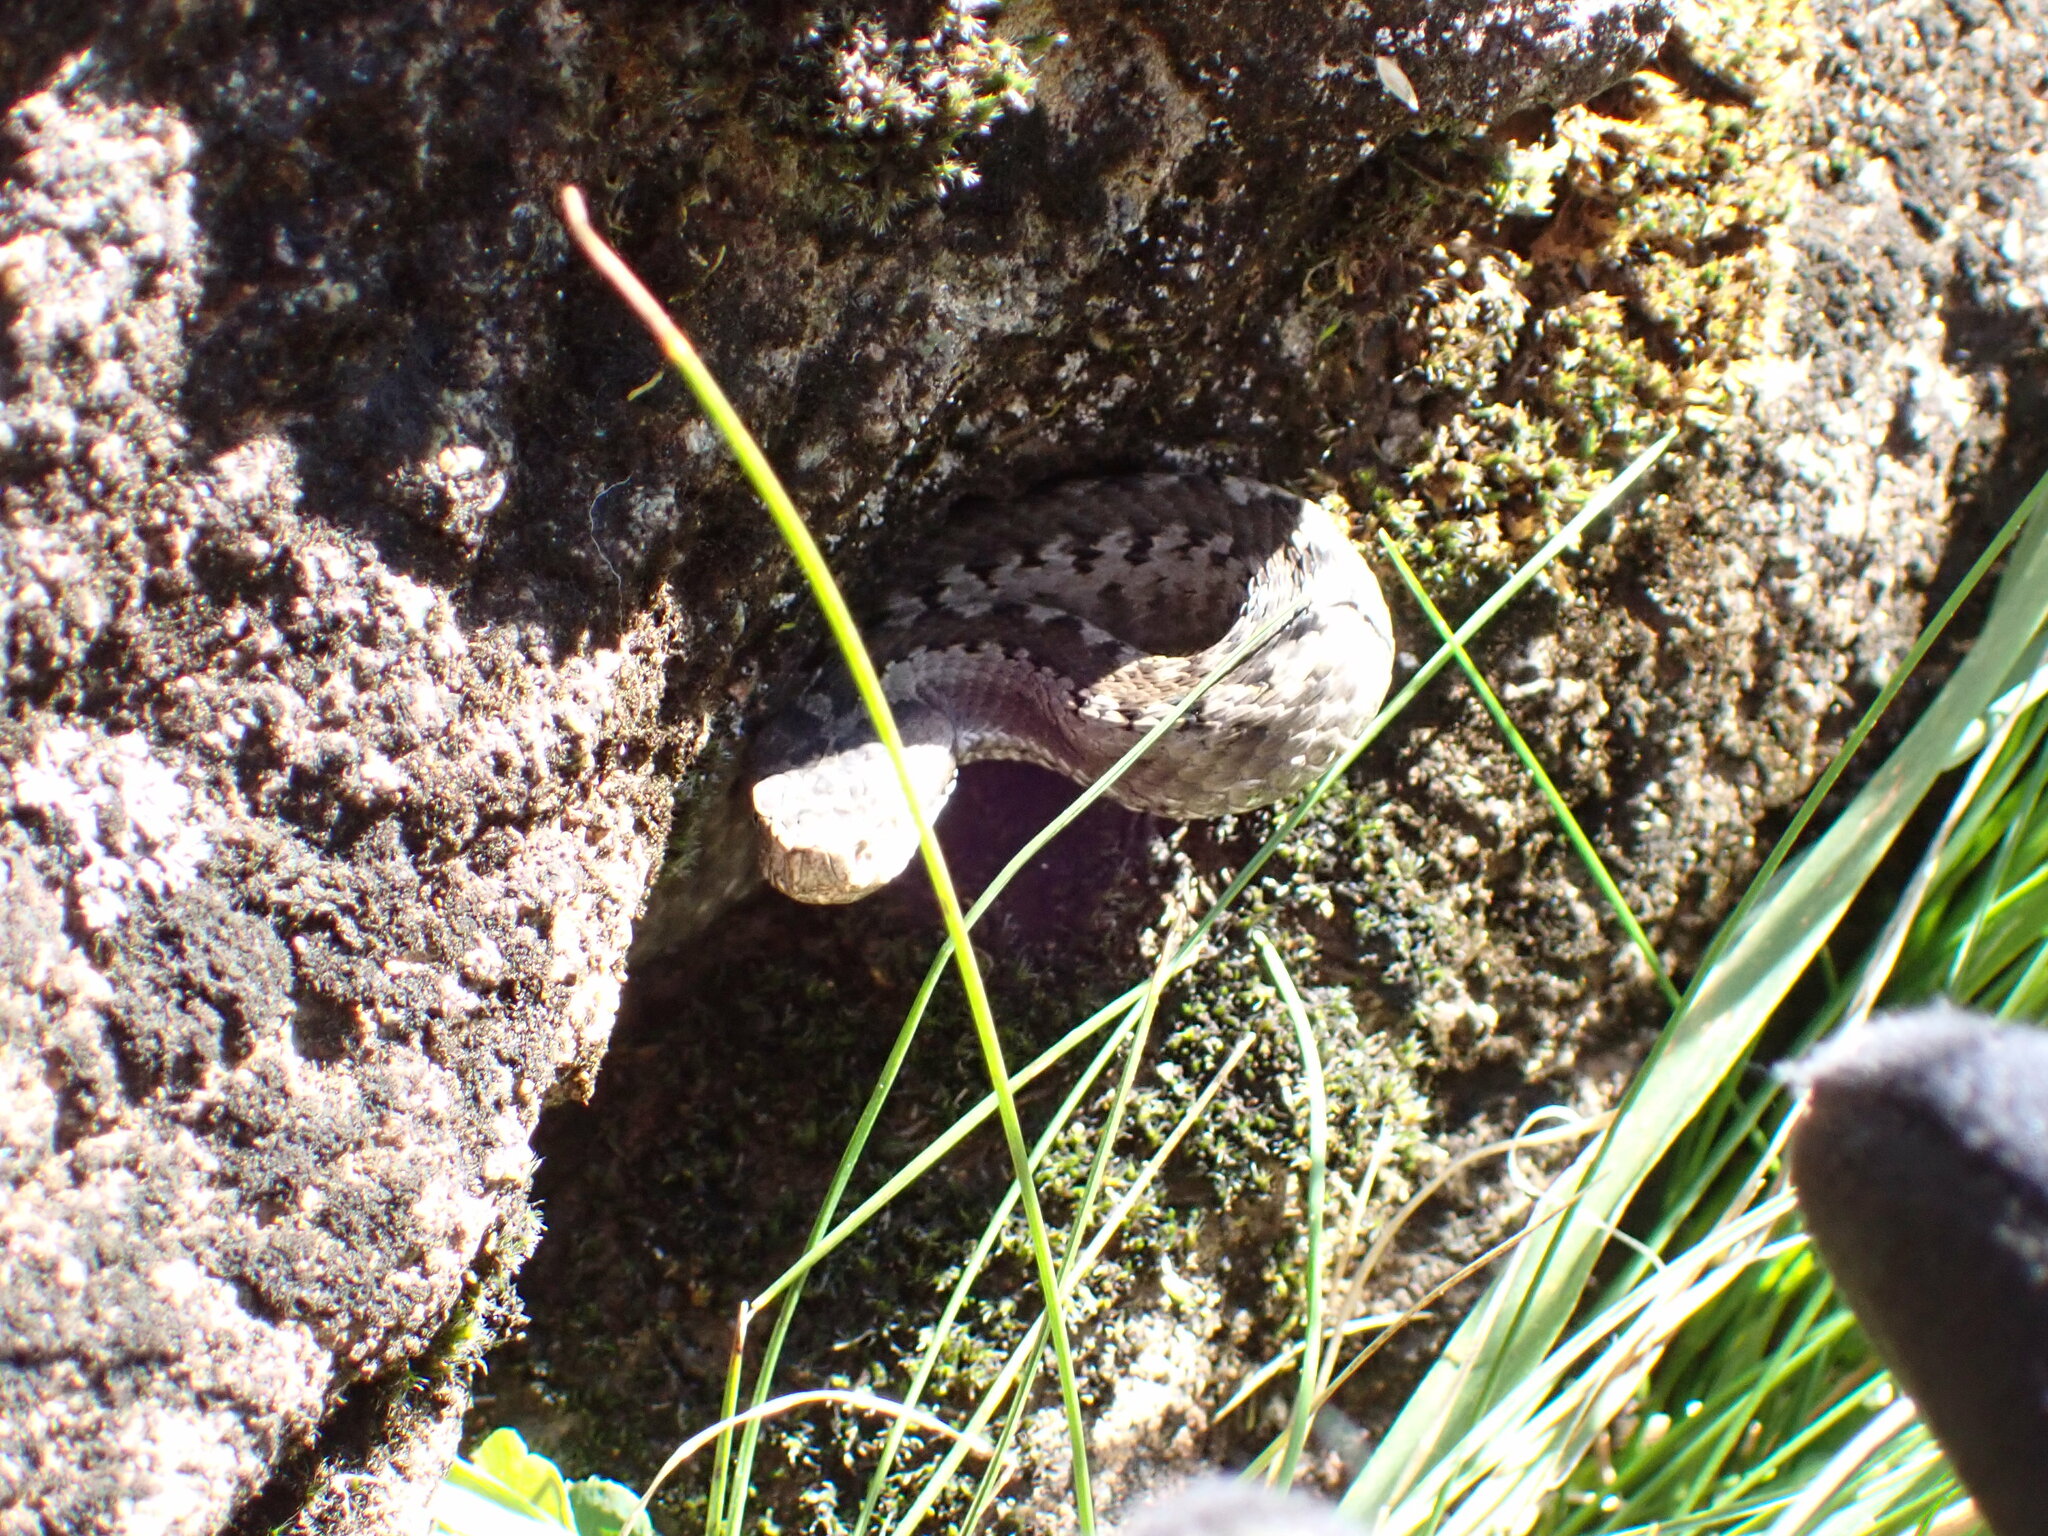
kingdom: Animalia
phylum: Chordata
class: Squamata
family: Viperidae
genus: Vipera
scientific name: Vipera aspis
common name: Asp viper
